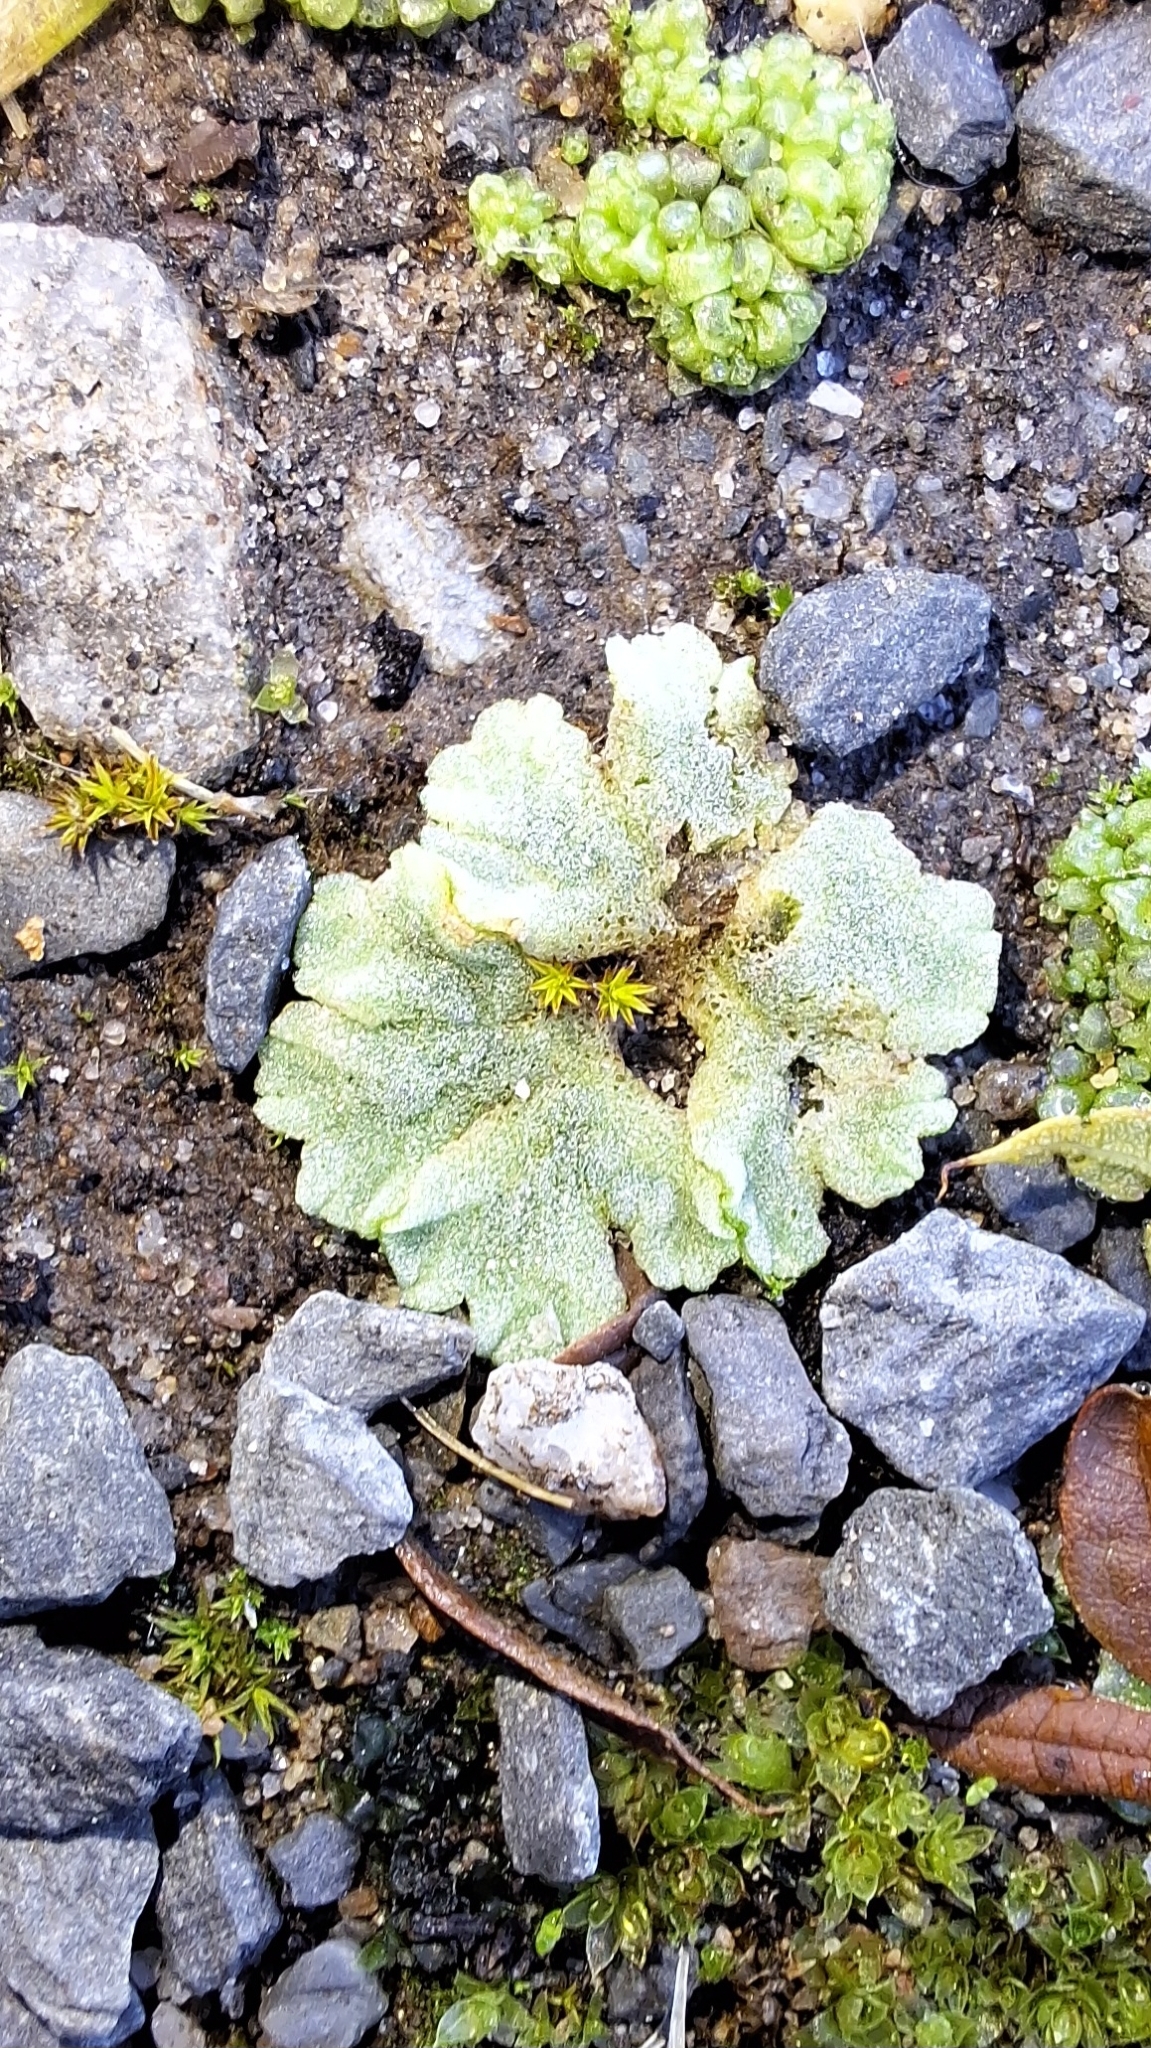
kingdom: Plantae
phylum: Marchantiophyta
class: Marchantiopsida
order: Marchantiales
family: Ricciaceae
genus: Riccia
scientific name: Riccia crystallina
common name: Blue crystalwort
